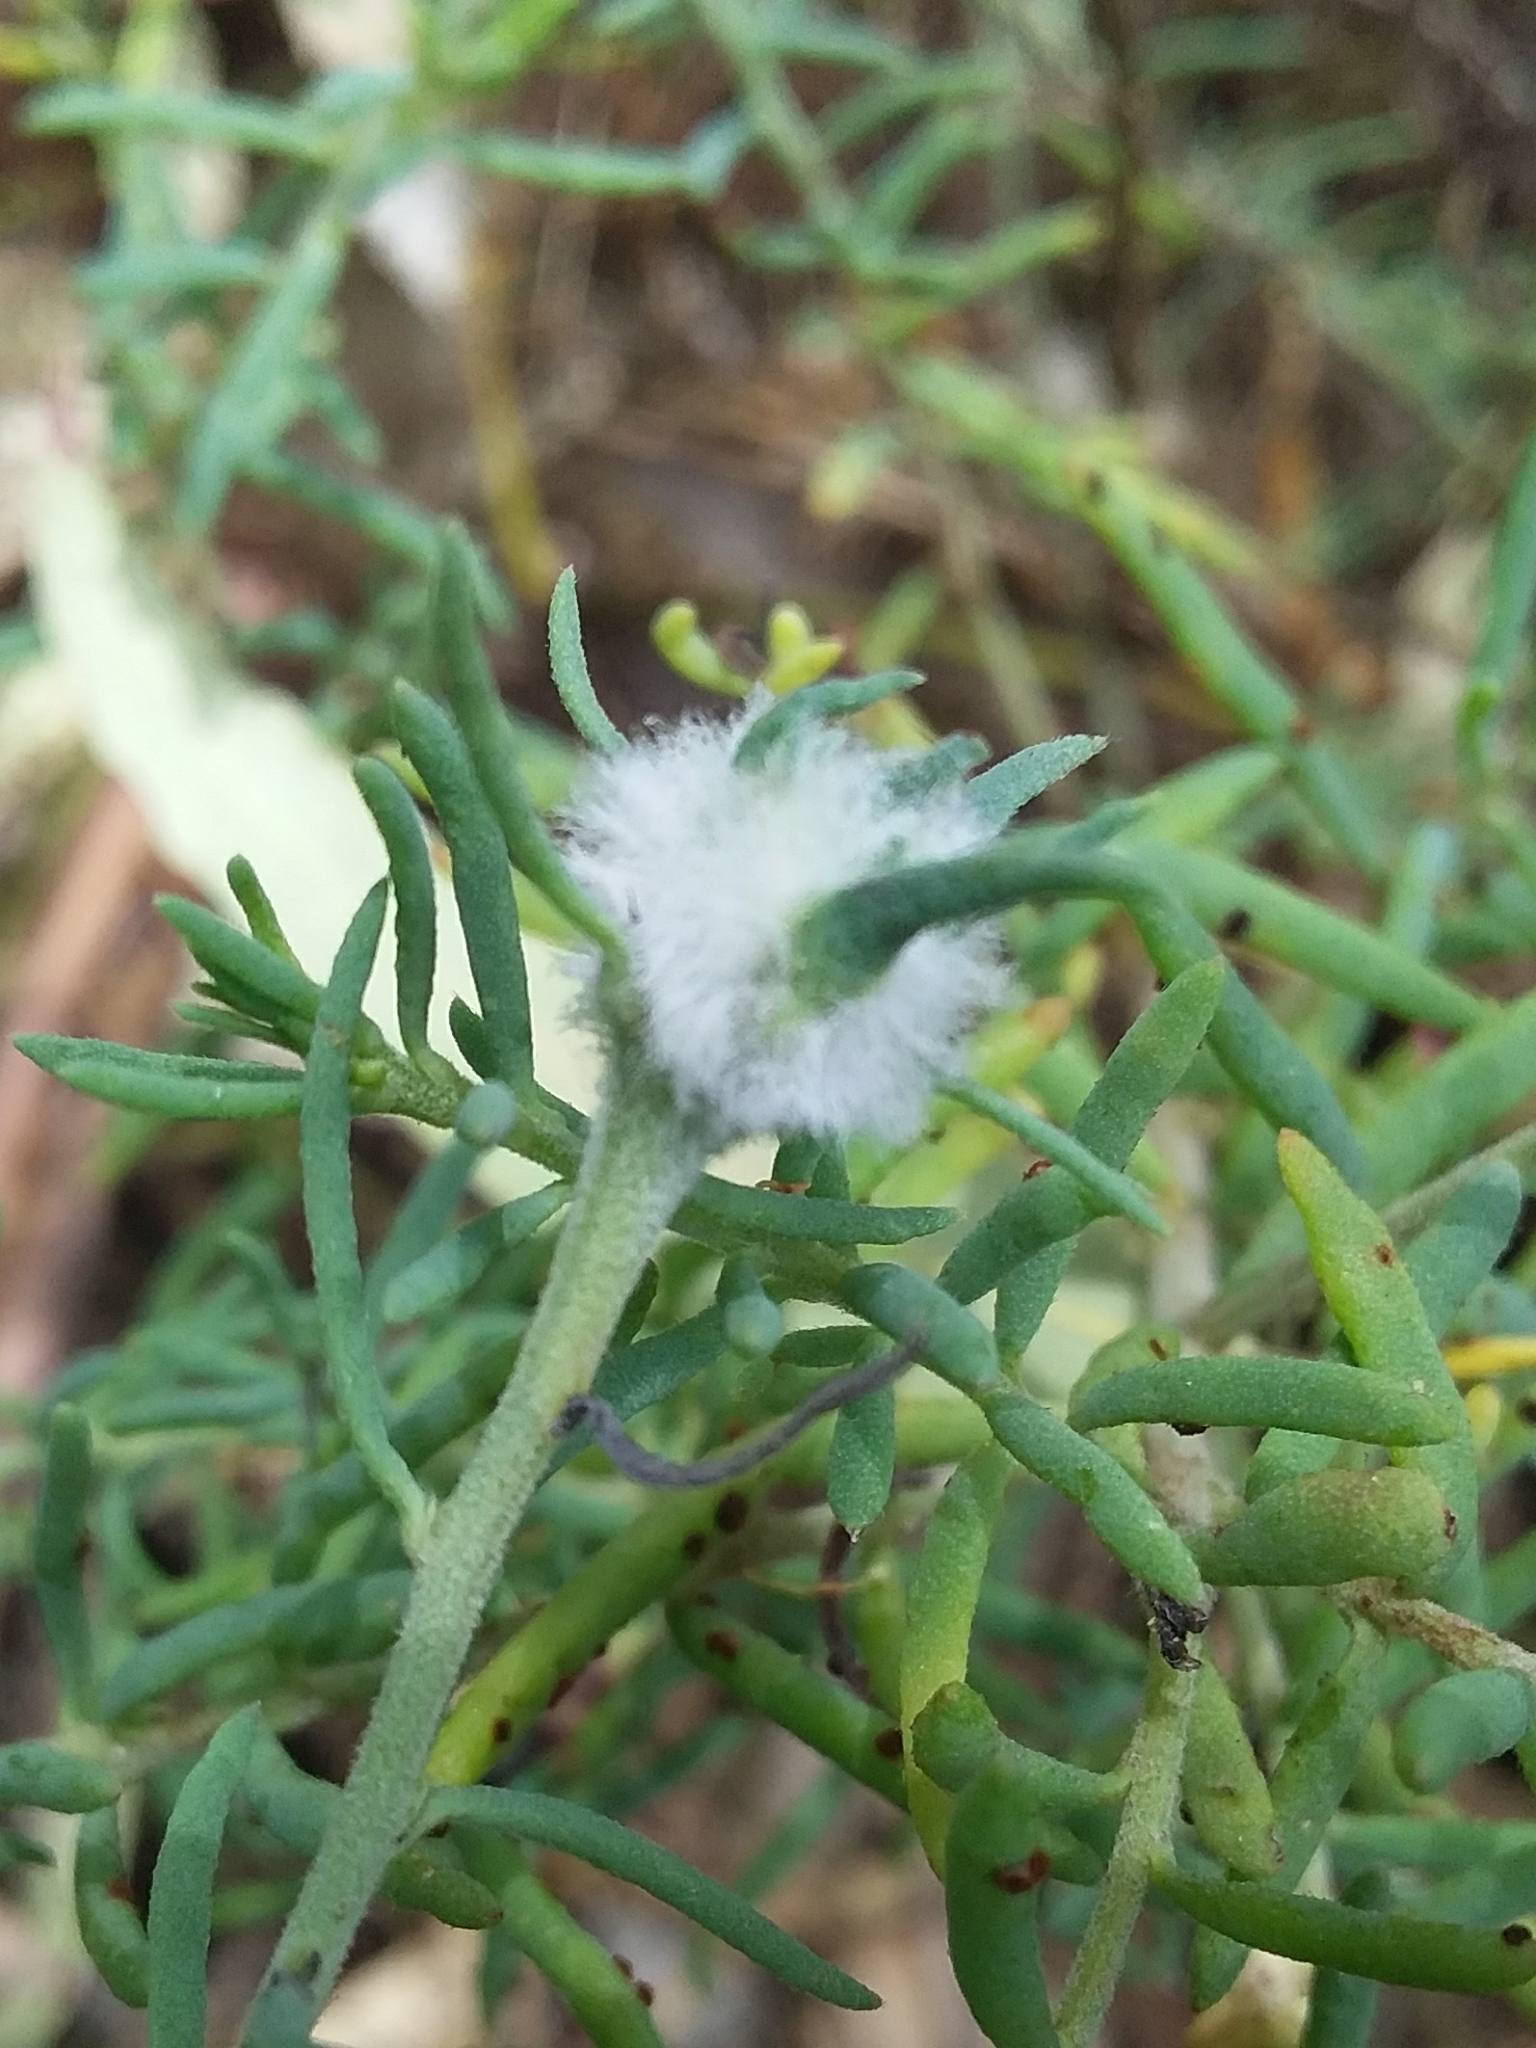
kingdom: Animalia
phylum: Arthropoda
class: Insecta
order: Diptera
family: Cecidomyiidae
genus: Asphondylia
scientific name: Asphondylia tonsura
